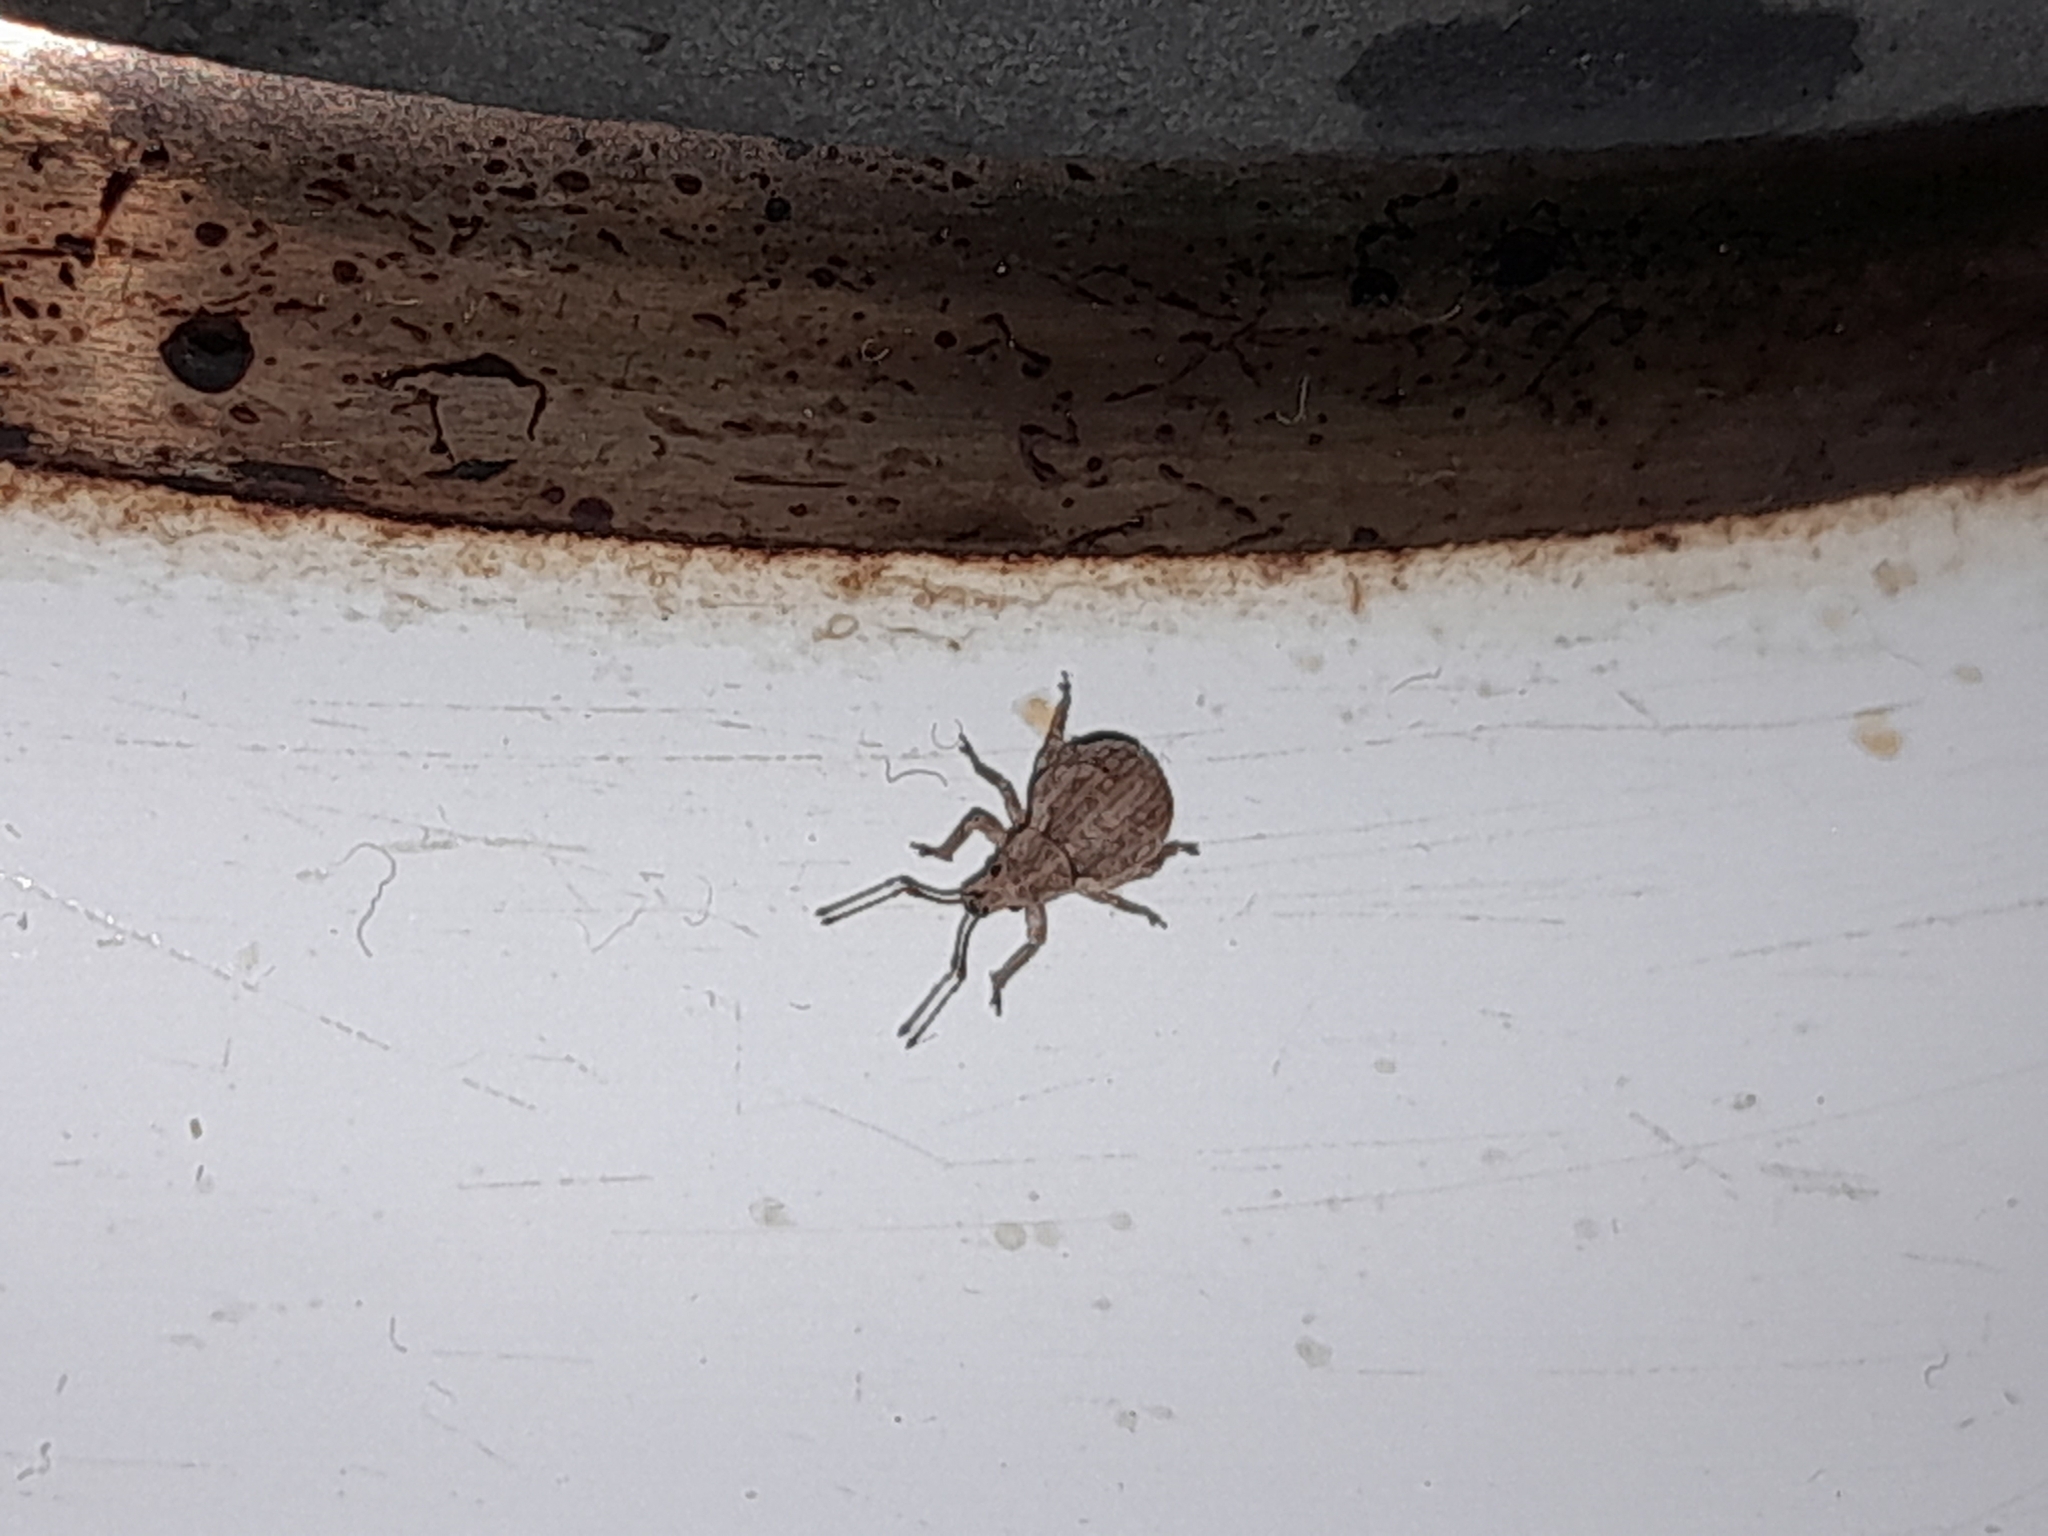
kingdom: Animalia
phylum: Arthropoda
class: Insecta
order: Coleoptera
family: Curculionidae
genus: Ellimenistes
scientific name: Ellimenistes laesicollis
